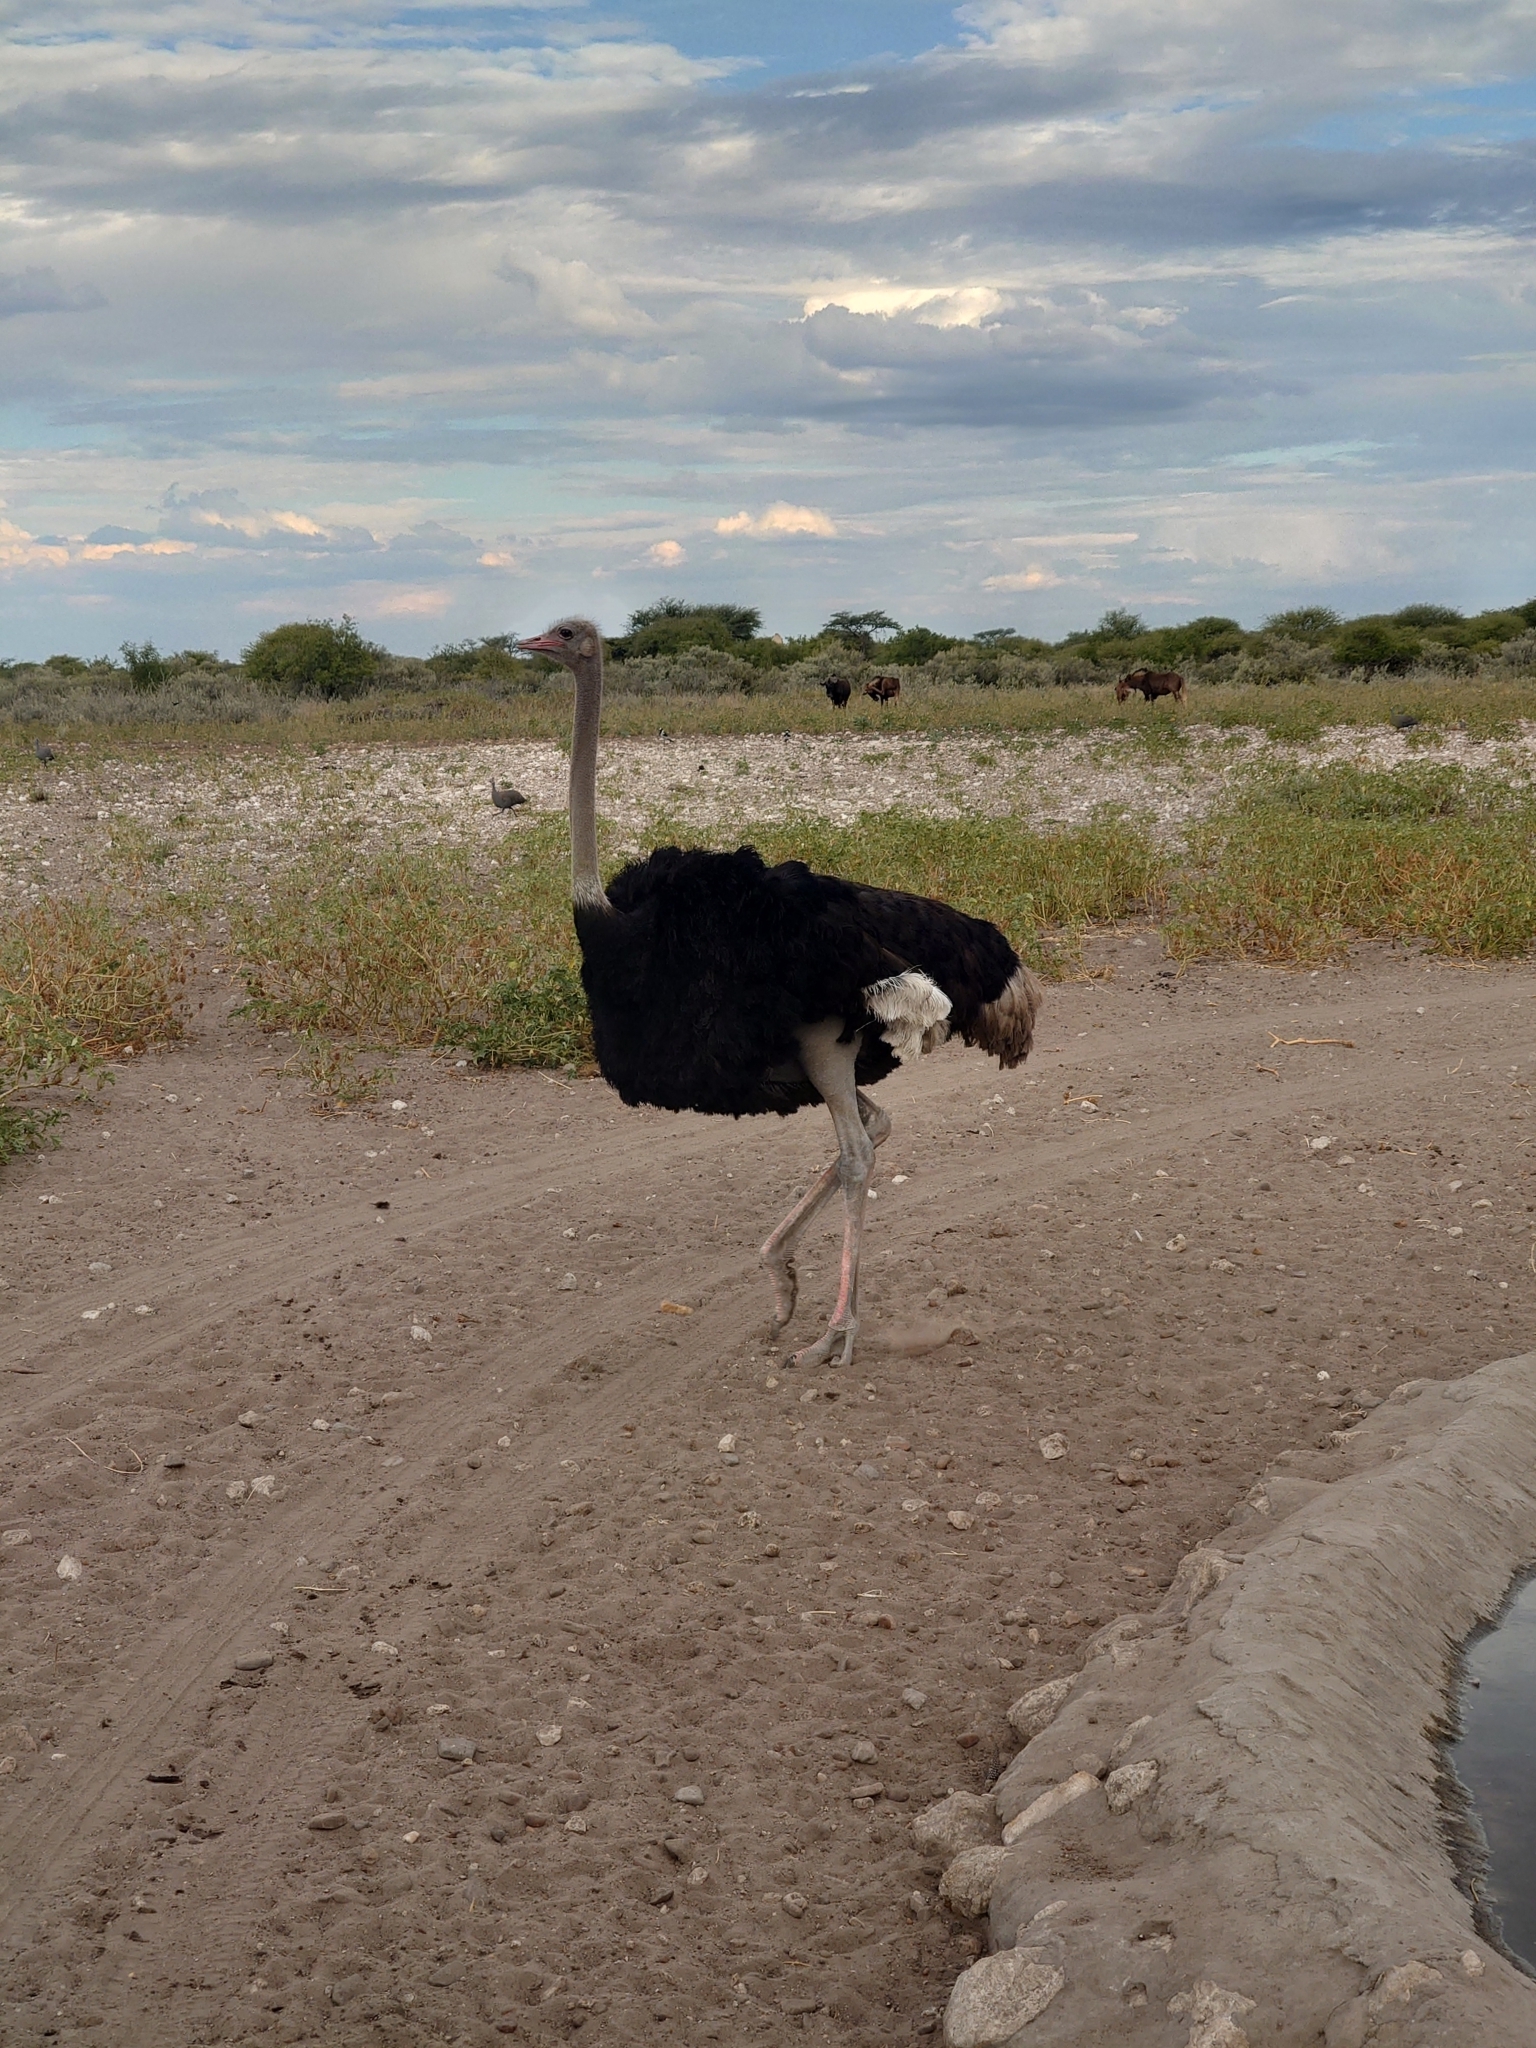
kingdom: Animalia
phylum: Chordata
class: Aves
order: Struthioniformes
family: Struthionidae
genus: Struthio
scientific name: Struthio camelus
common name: Common ostrich
